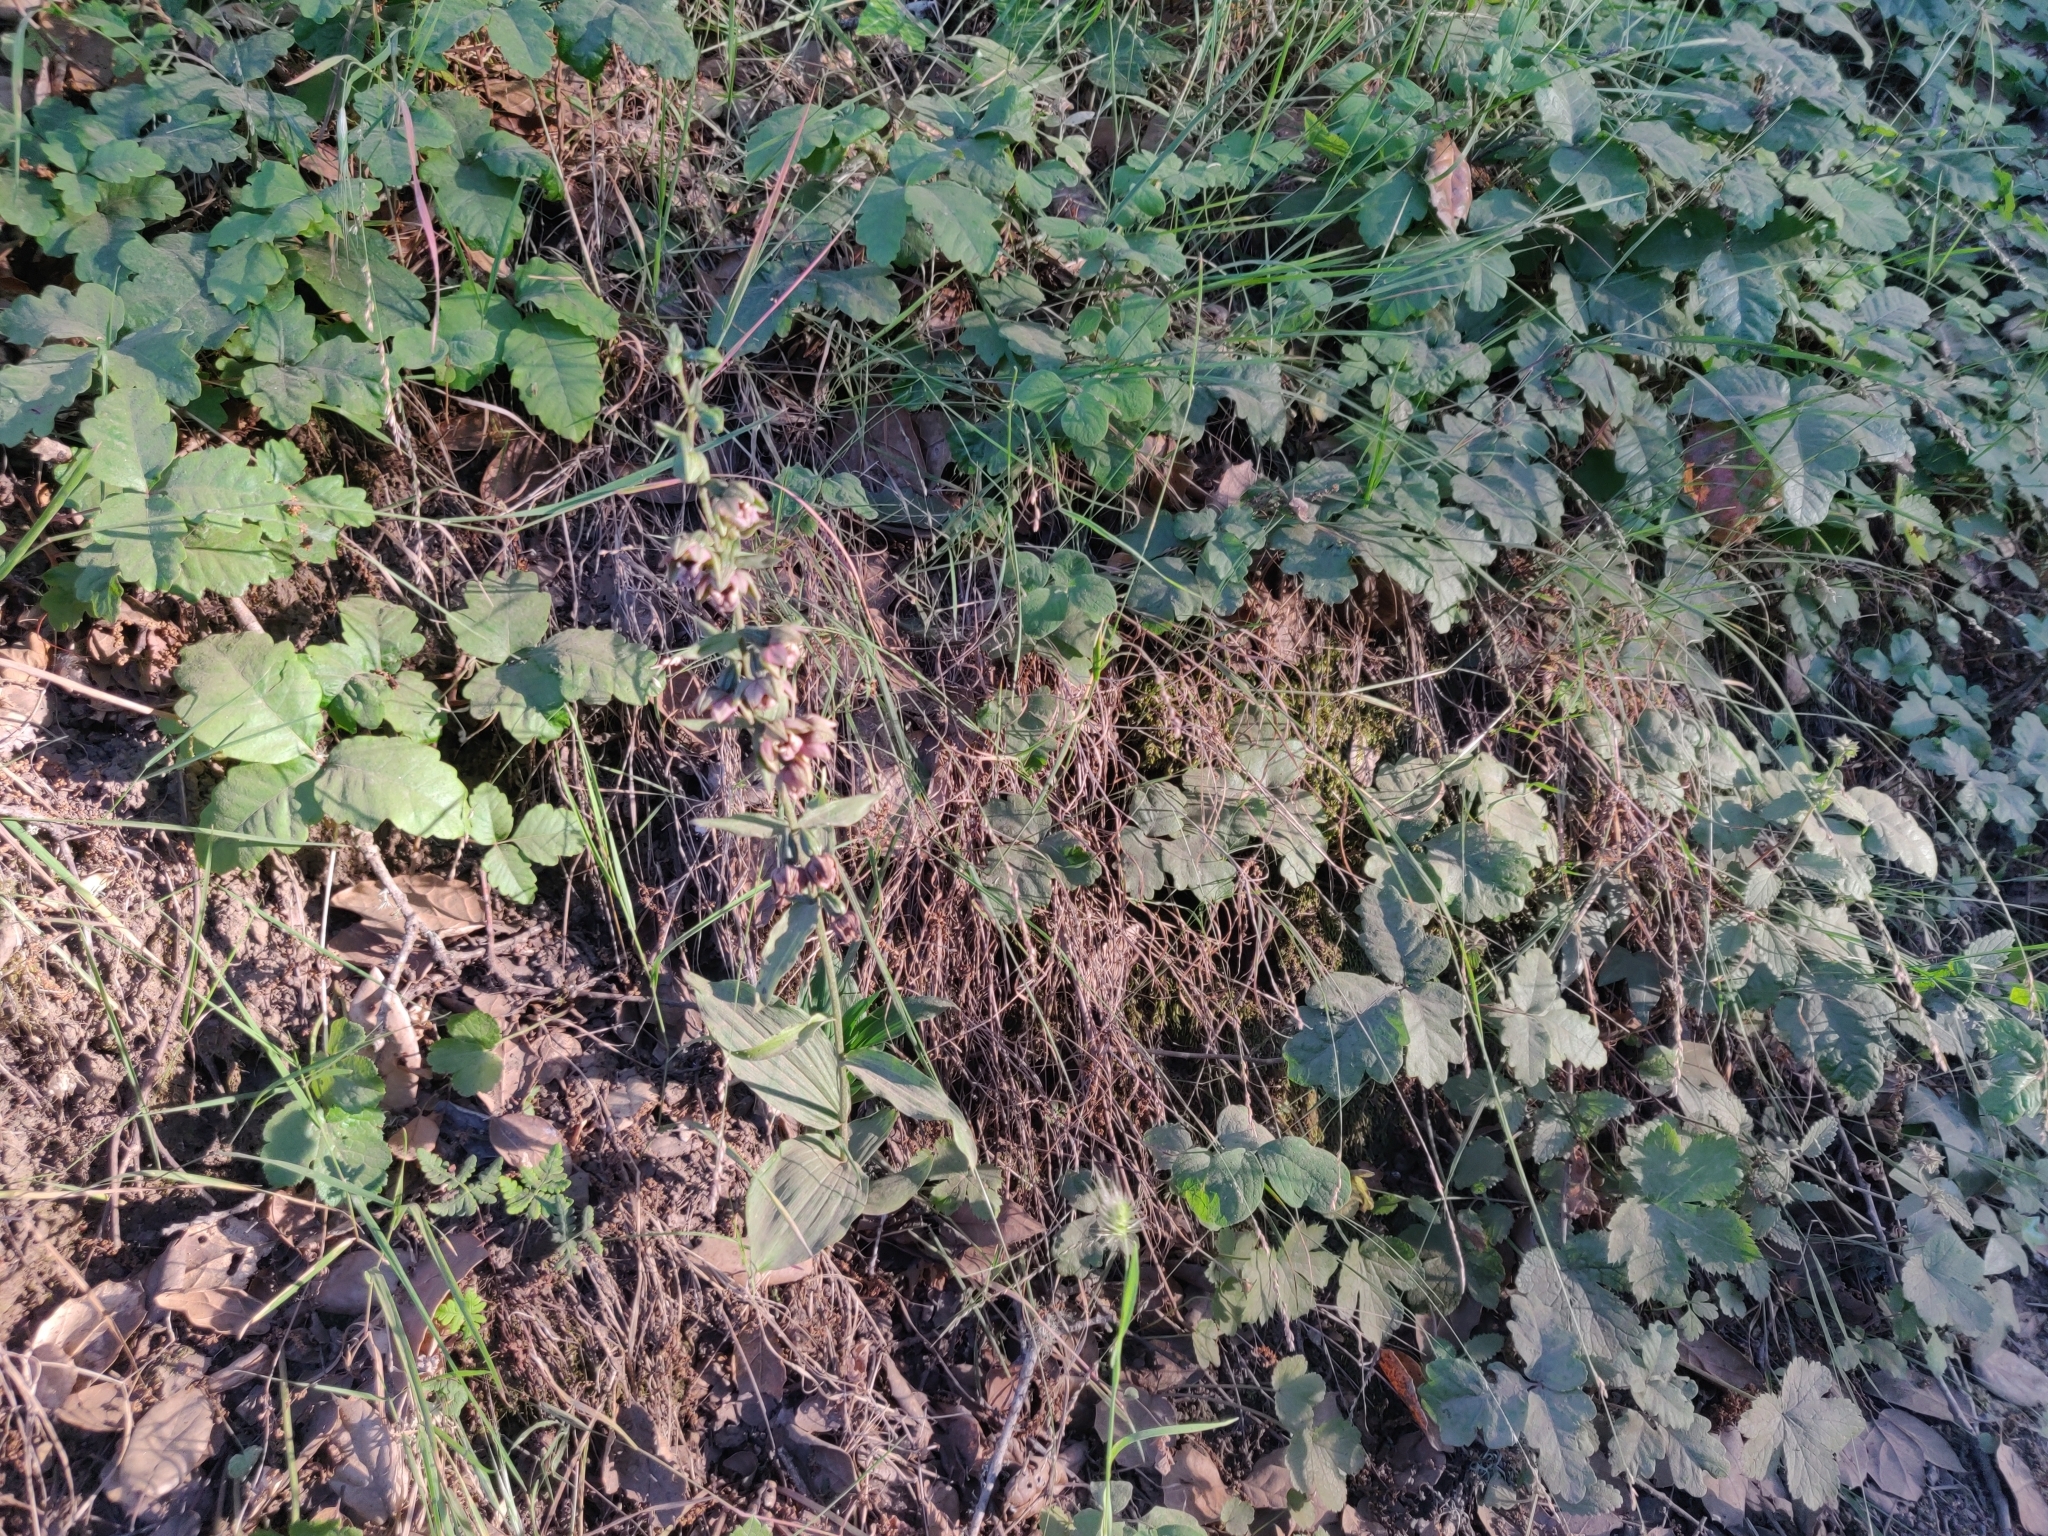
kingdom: Plantae
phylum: Tracheophyta
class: Liliopsida
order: Asparagales
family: Orchidaceae
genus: Epipactis
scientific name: Epipactis helleborine
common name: Broad-leaved helleborine
